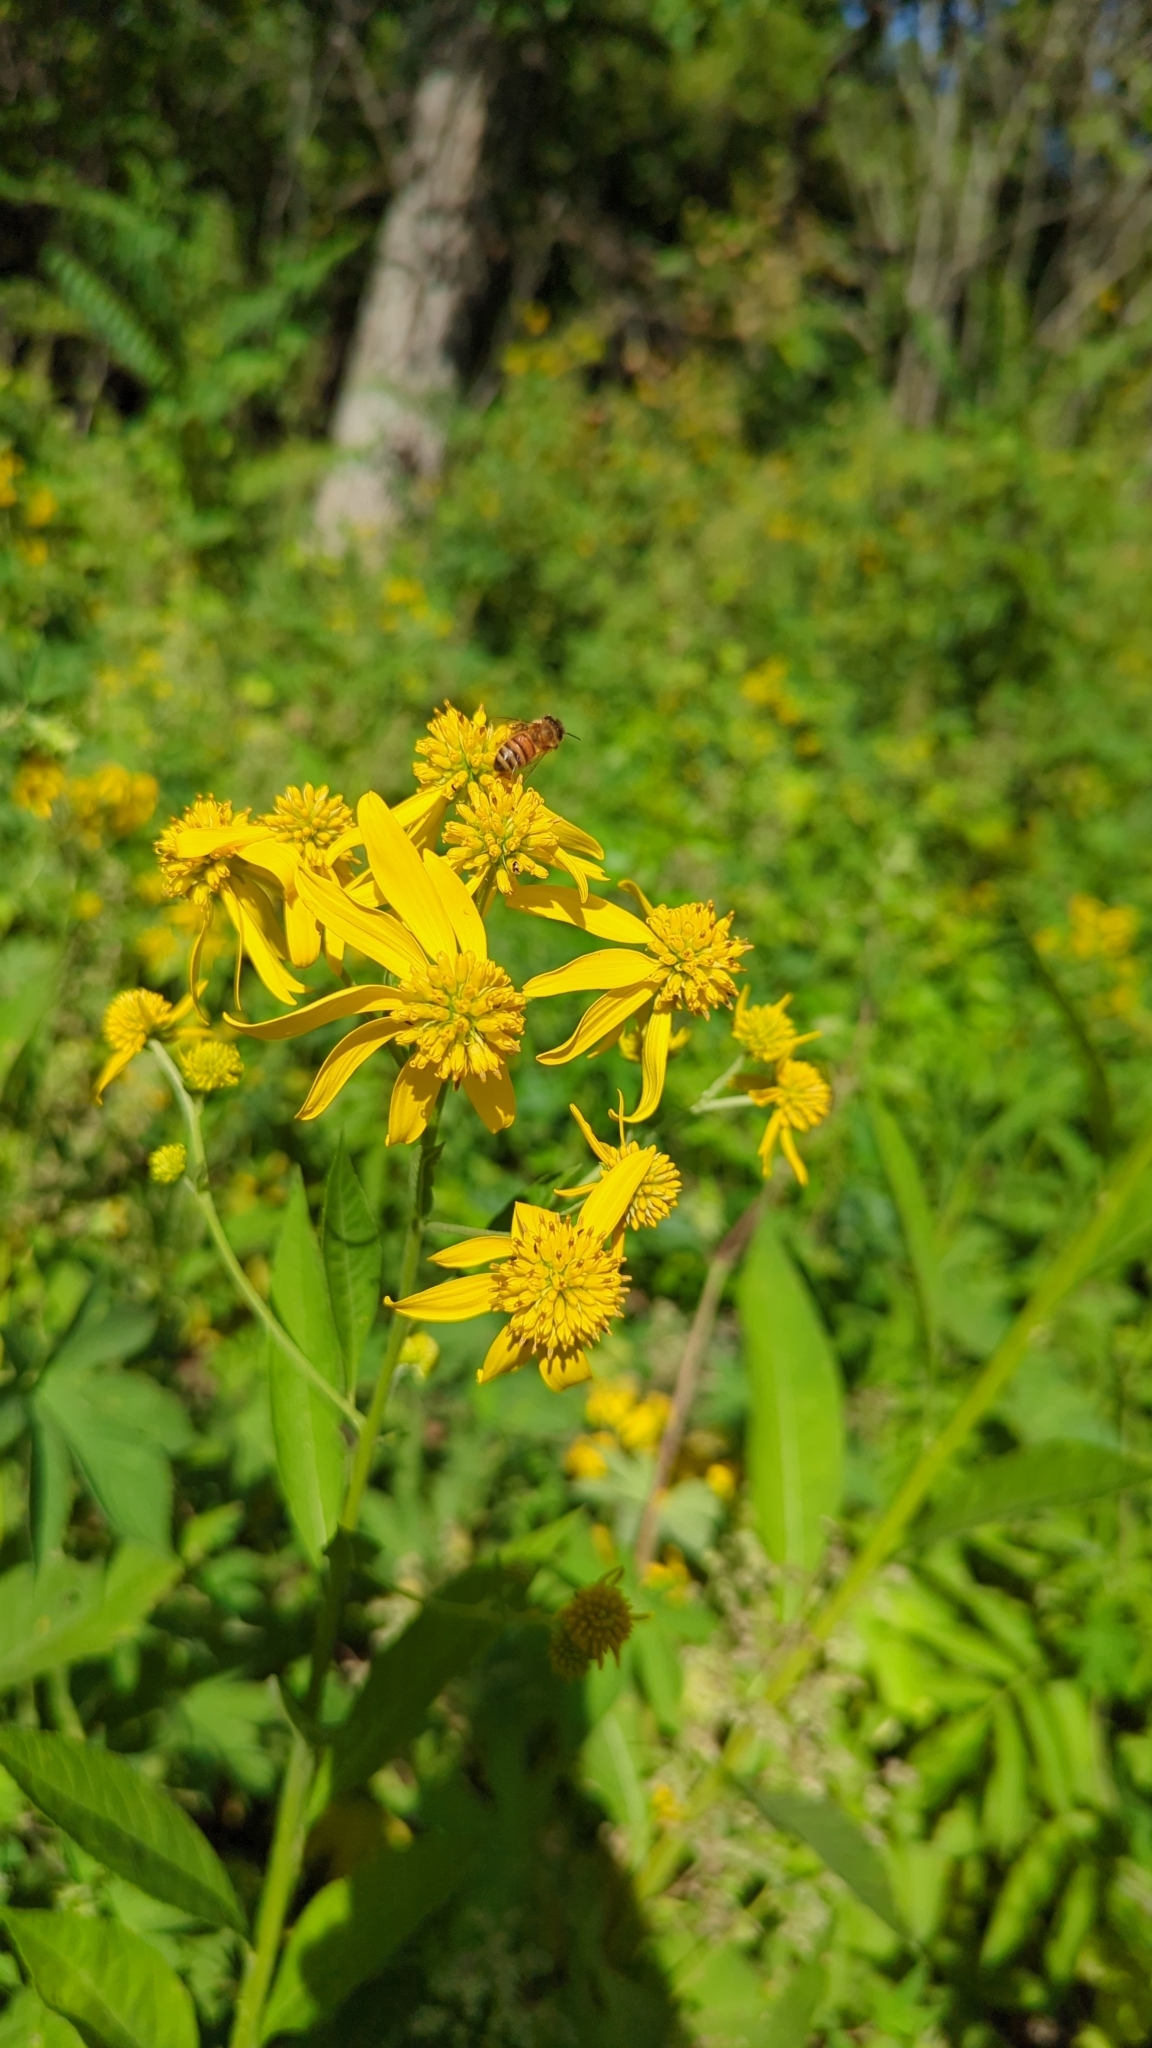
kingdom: Plantae
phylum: Tracheophyta
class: Magnoliopsida
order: Asterales
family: Asteraceae
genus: Verbesina
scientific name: Verbesina alternifolia
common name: Wingstem
